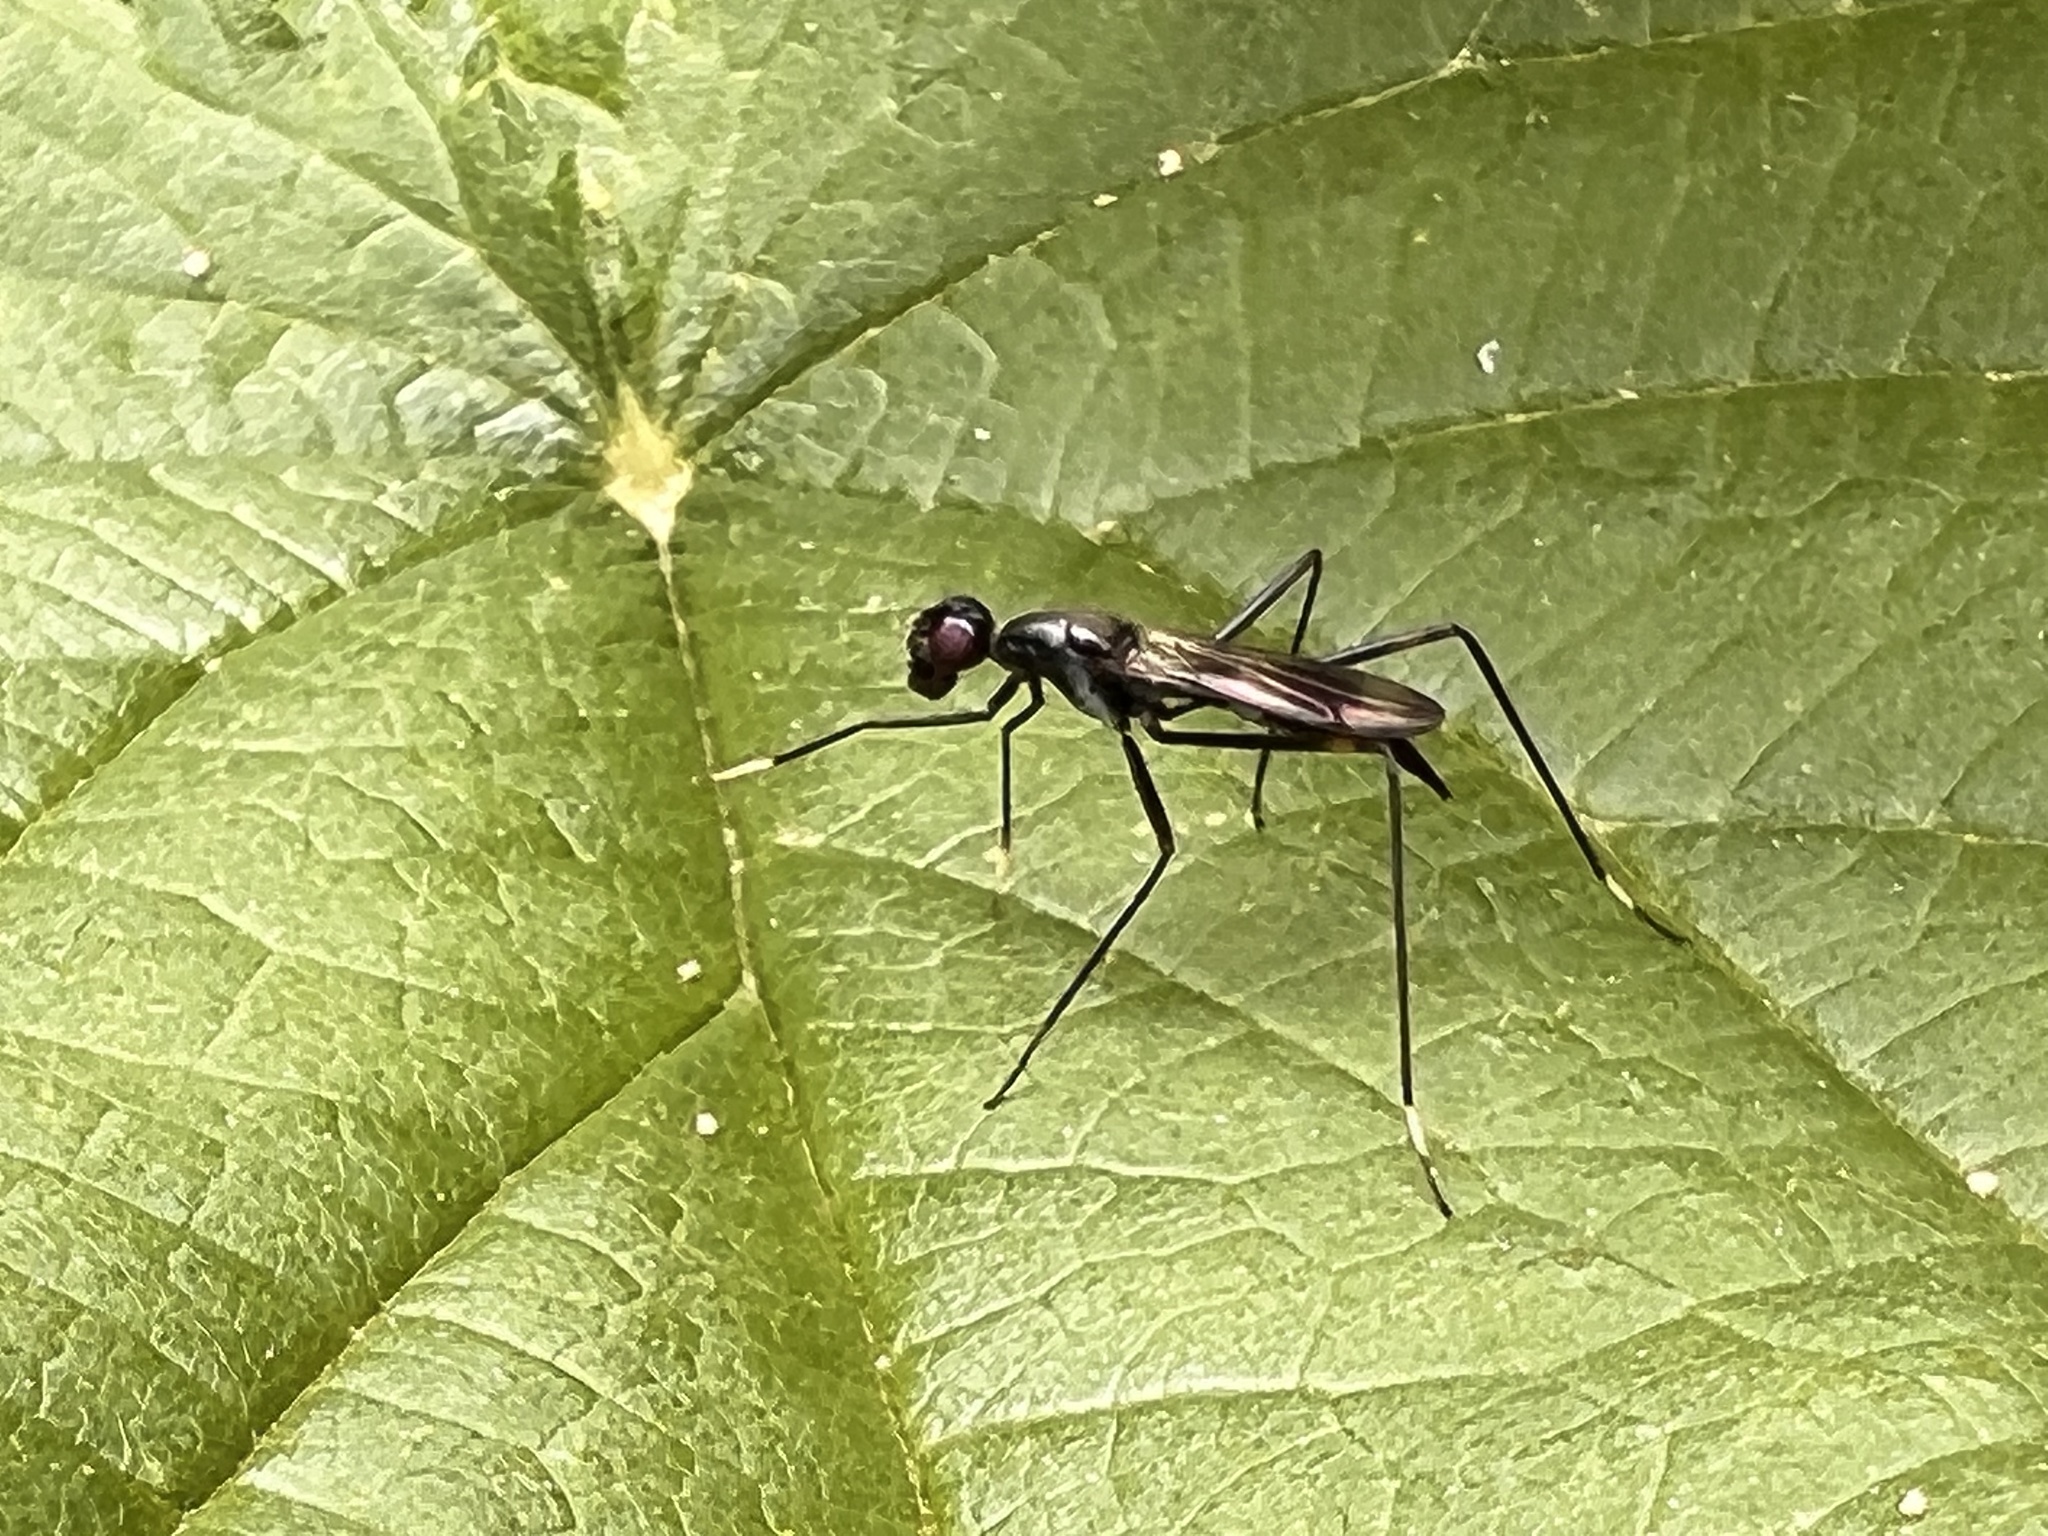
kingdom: Animalia
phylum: Arthropoda
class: Insecta
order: Diptera
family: Micropezidae
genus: Rainieria
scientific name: Rainieria calceata
